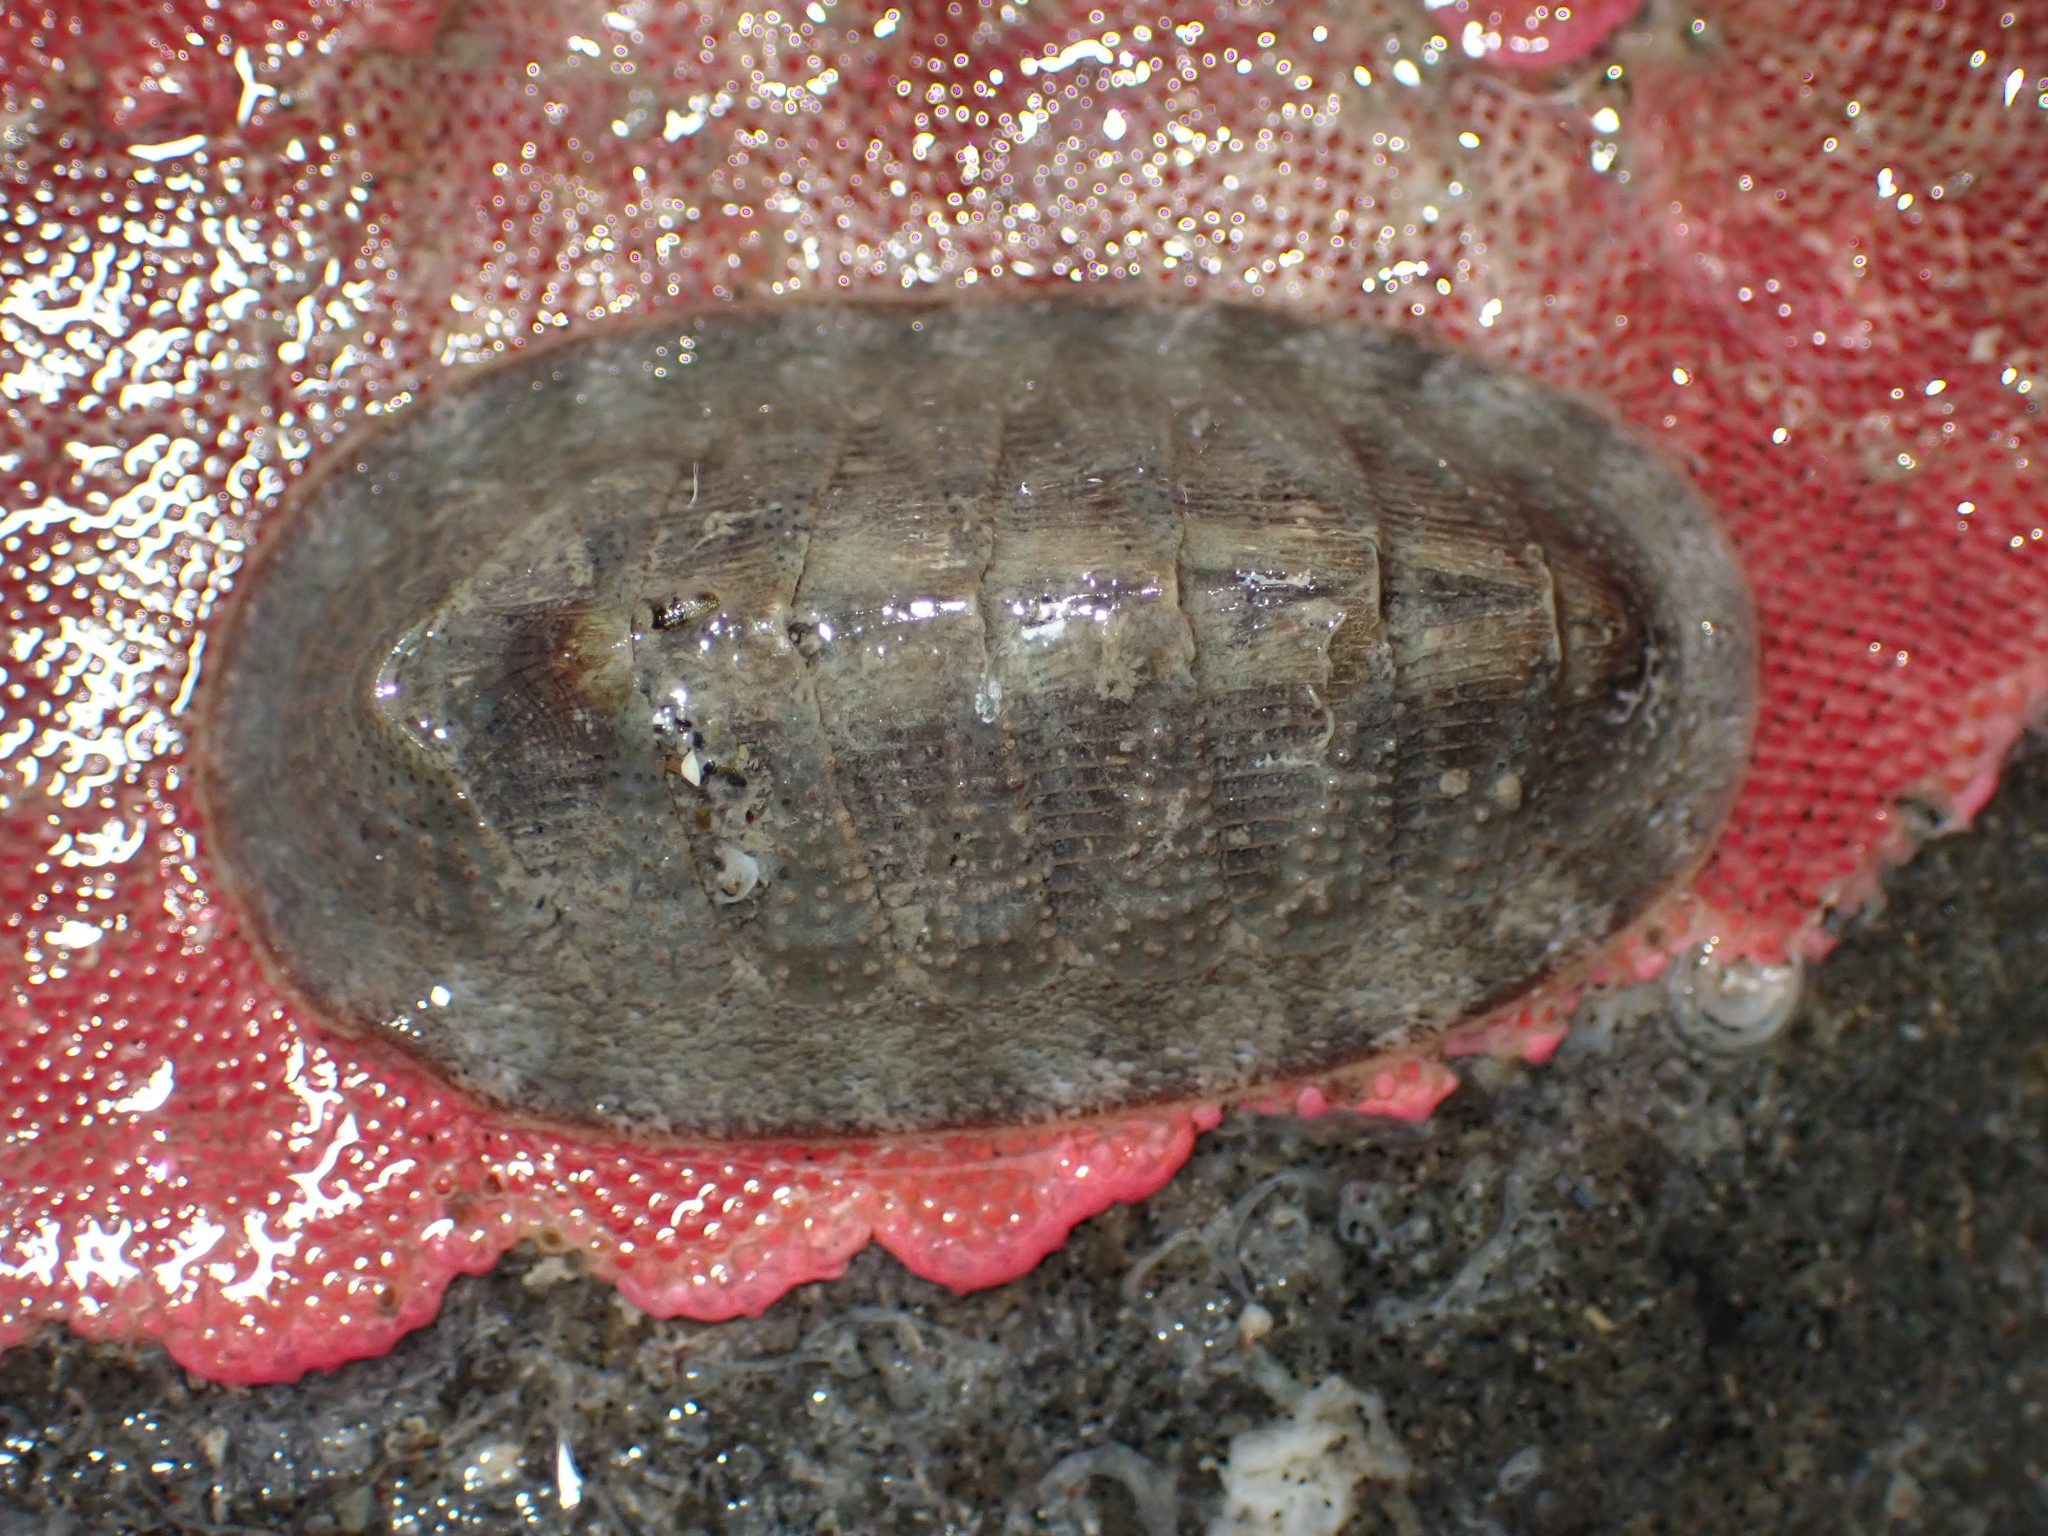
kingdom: Animalia
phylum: Mollusca
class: Polyplacophora
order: Chitonida
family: Ischnochitonidae
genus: Lepidozona
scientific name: Lepidozona cooperi
